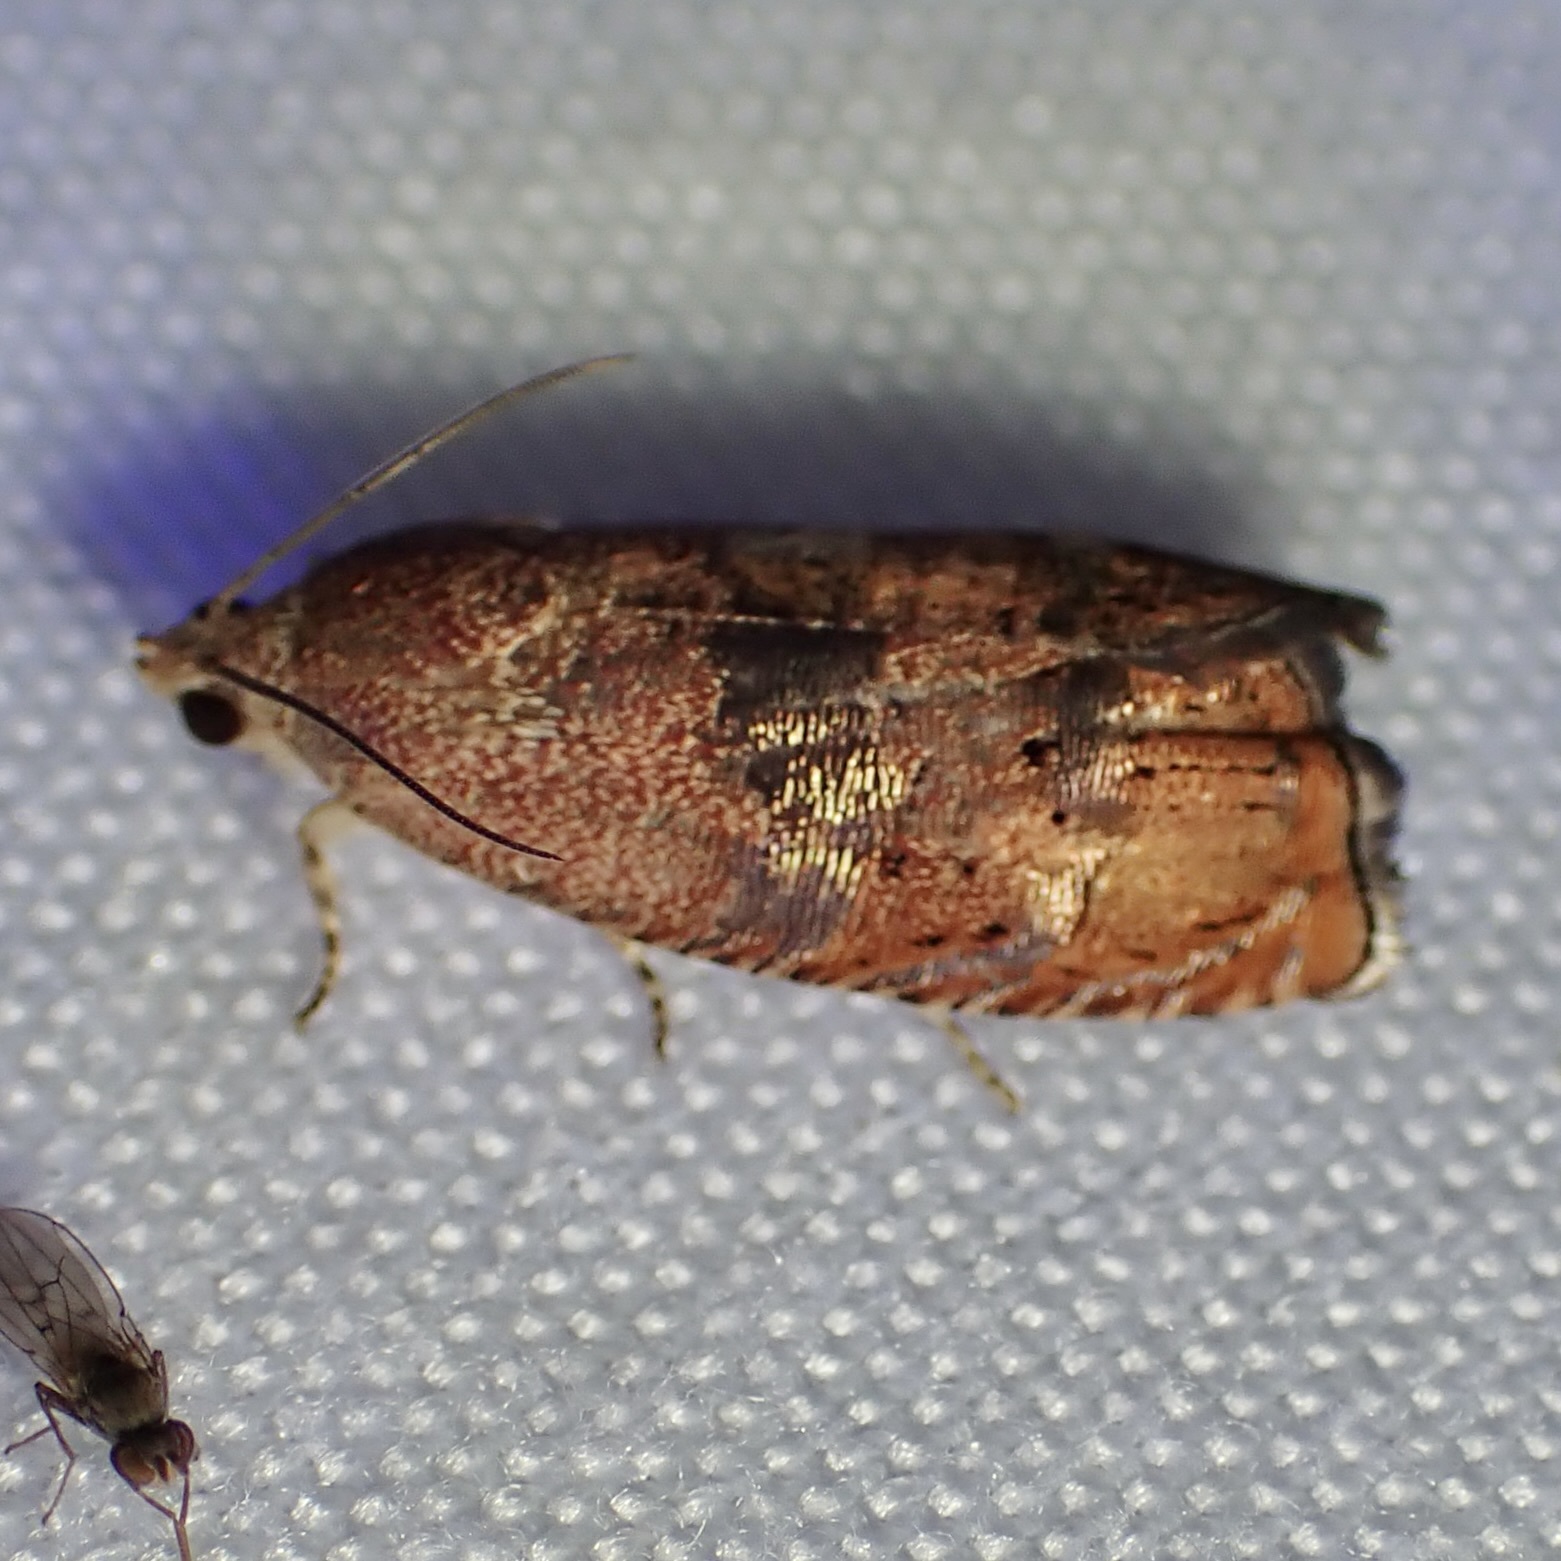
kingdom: Animalia
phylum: Arthropoda
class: Insecta
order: Lepidoptera
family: Tortricidae
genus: Cydia
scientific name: Cydia latiferreana
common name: Filbertworm moth
